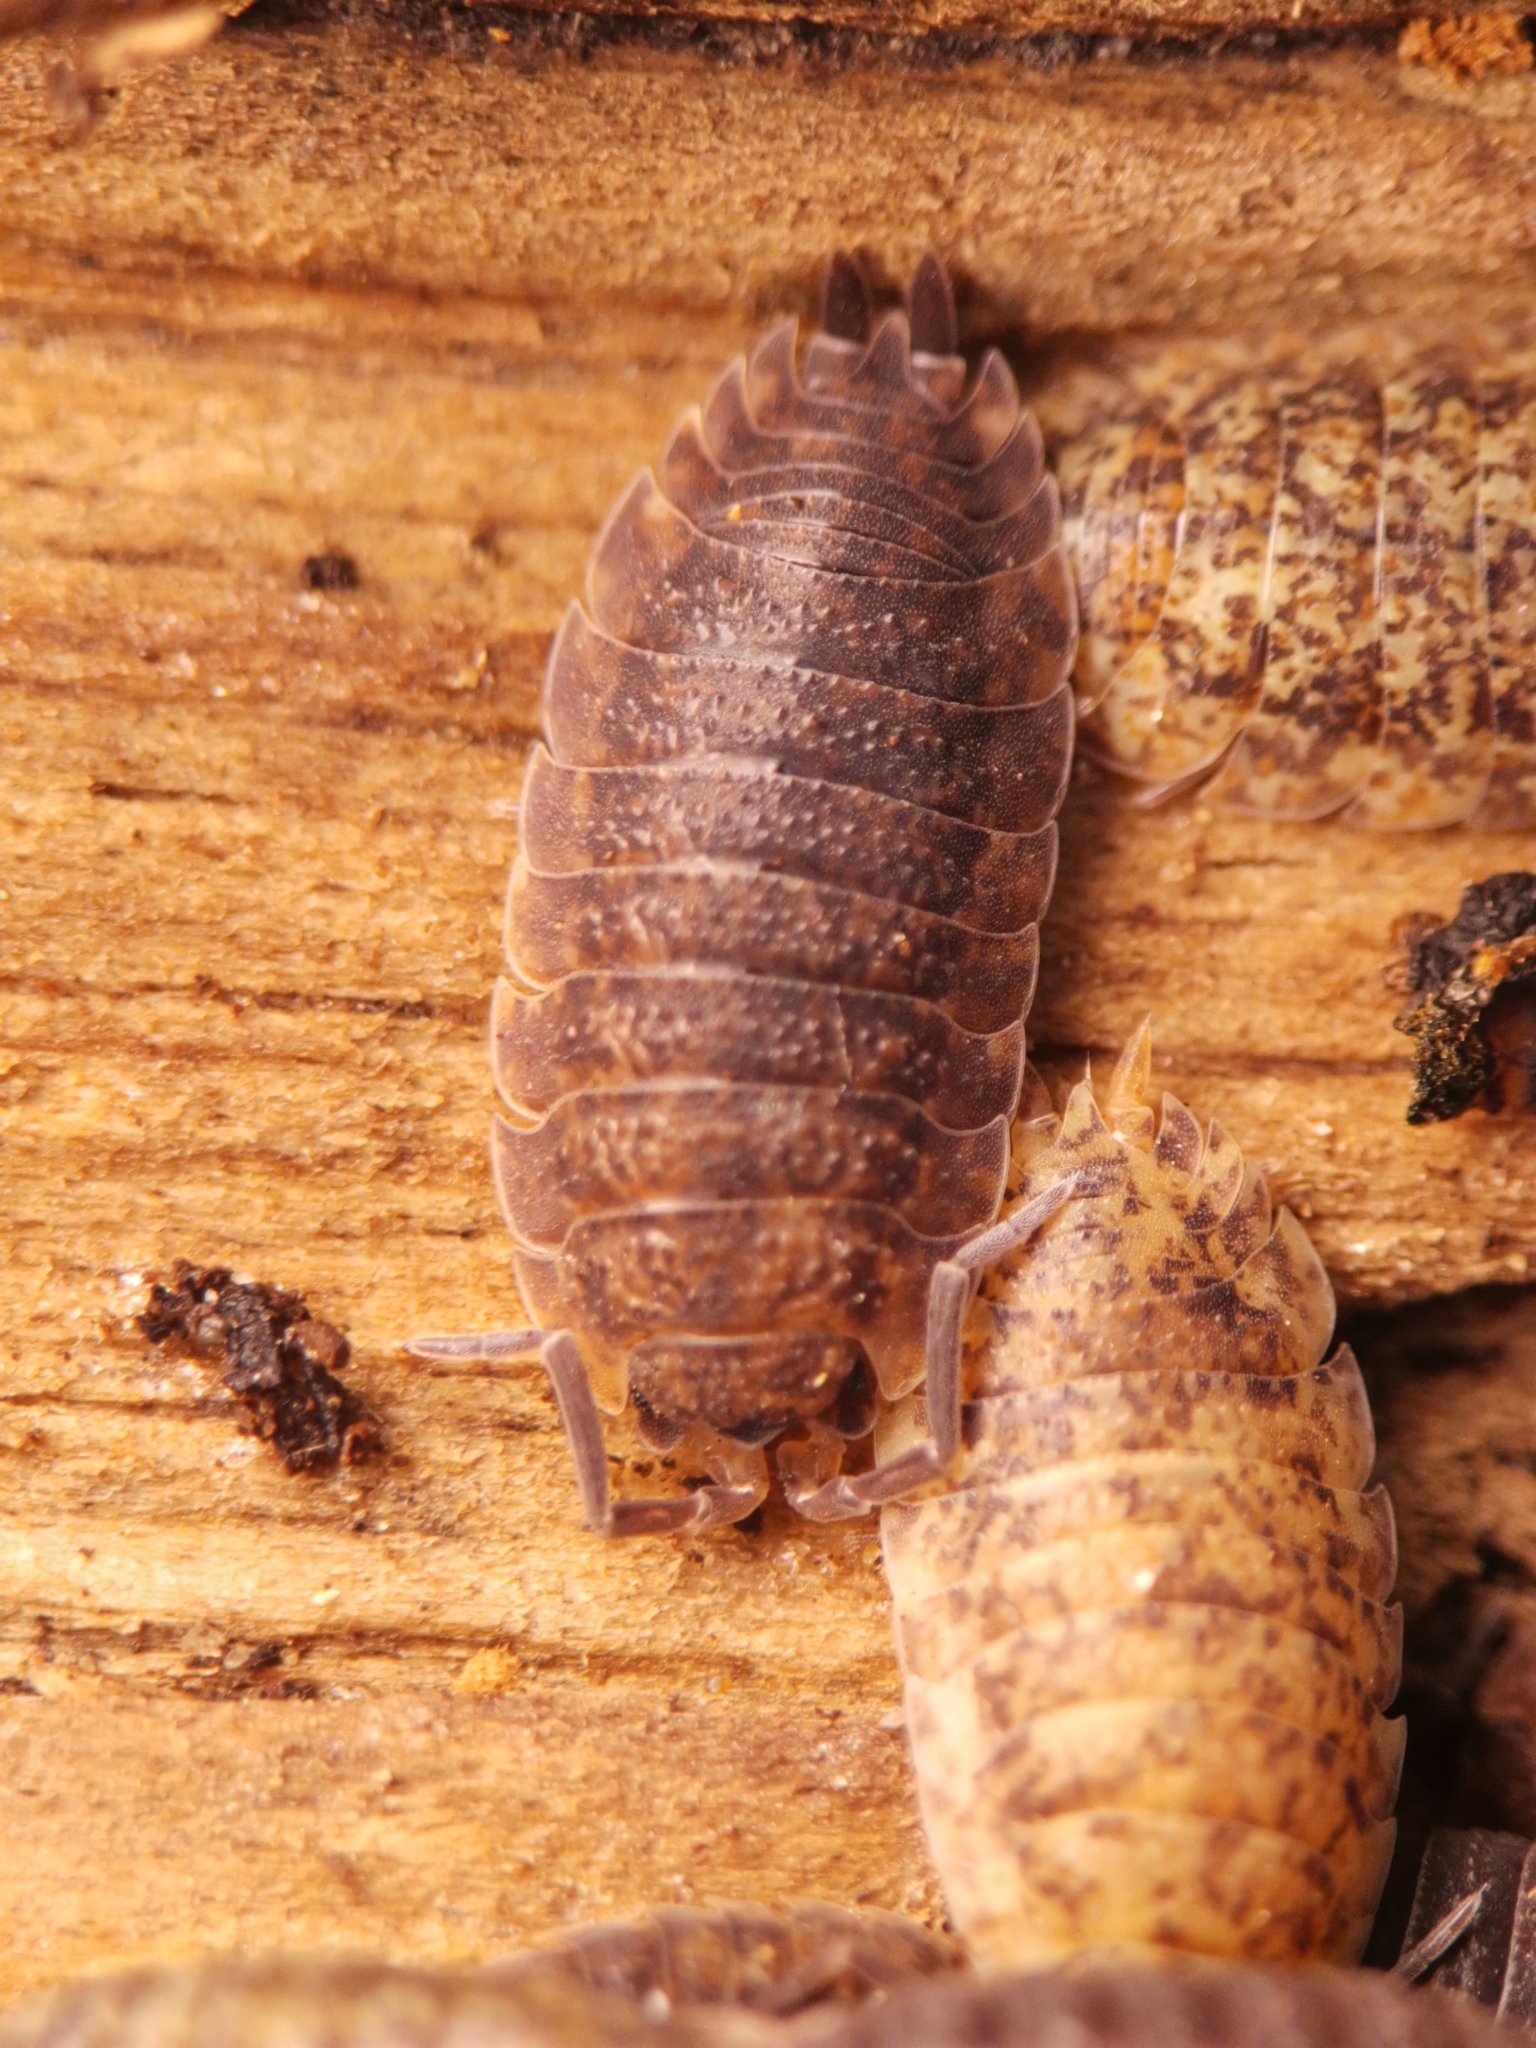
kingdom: Animalia
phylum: Arthropoda
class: Malacostraca
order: Isopoda
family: Porcellionidae
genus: Porcellio
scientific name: Porcellio scaber
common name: Common rough woodlouse
